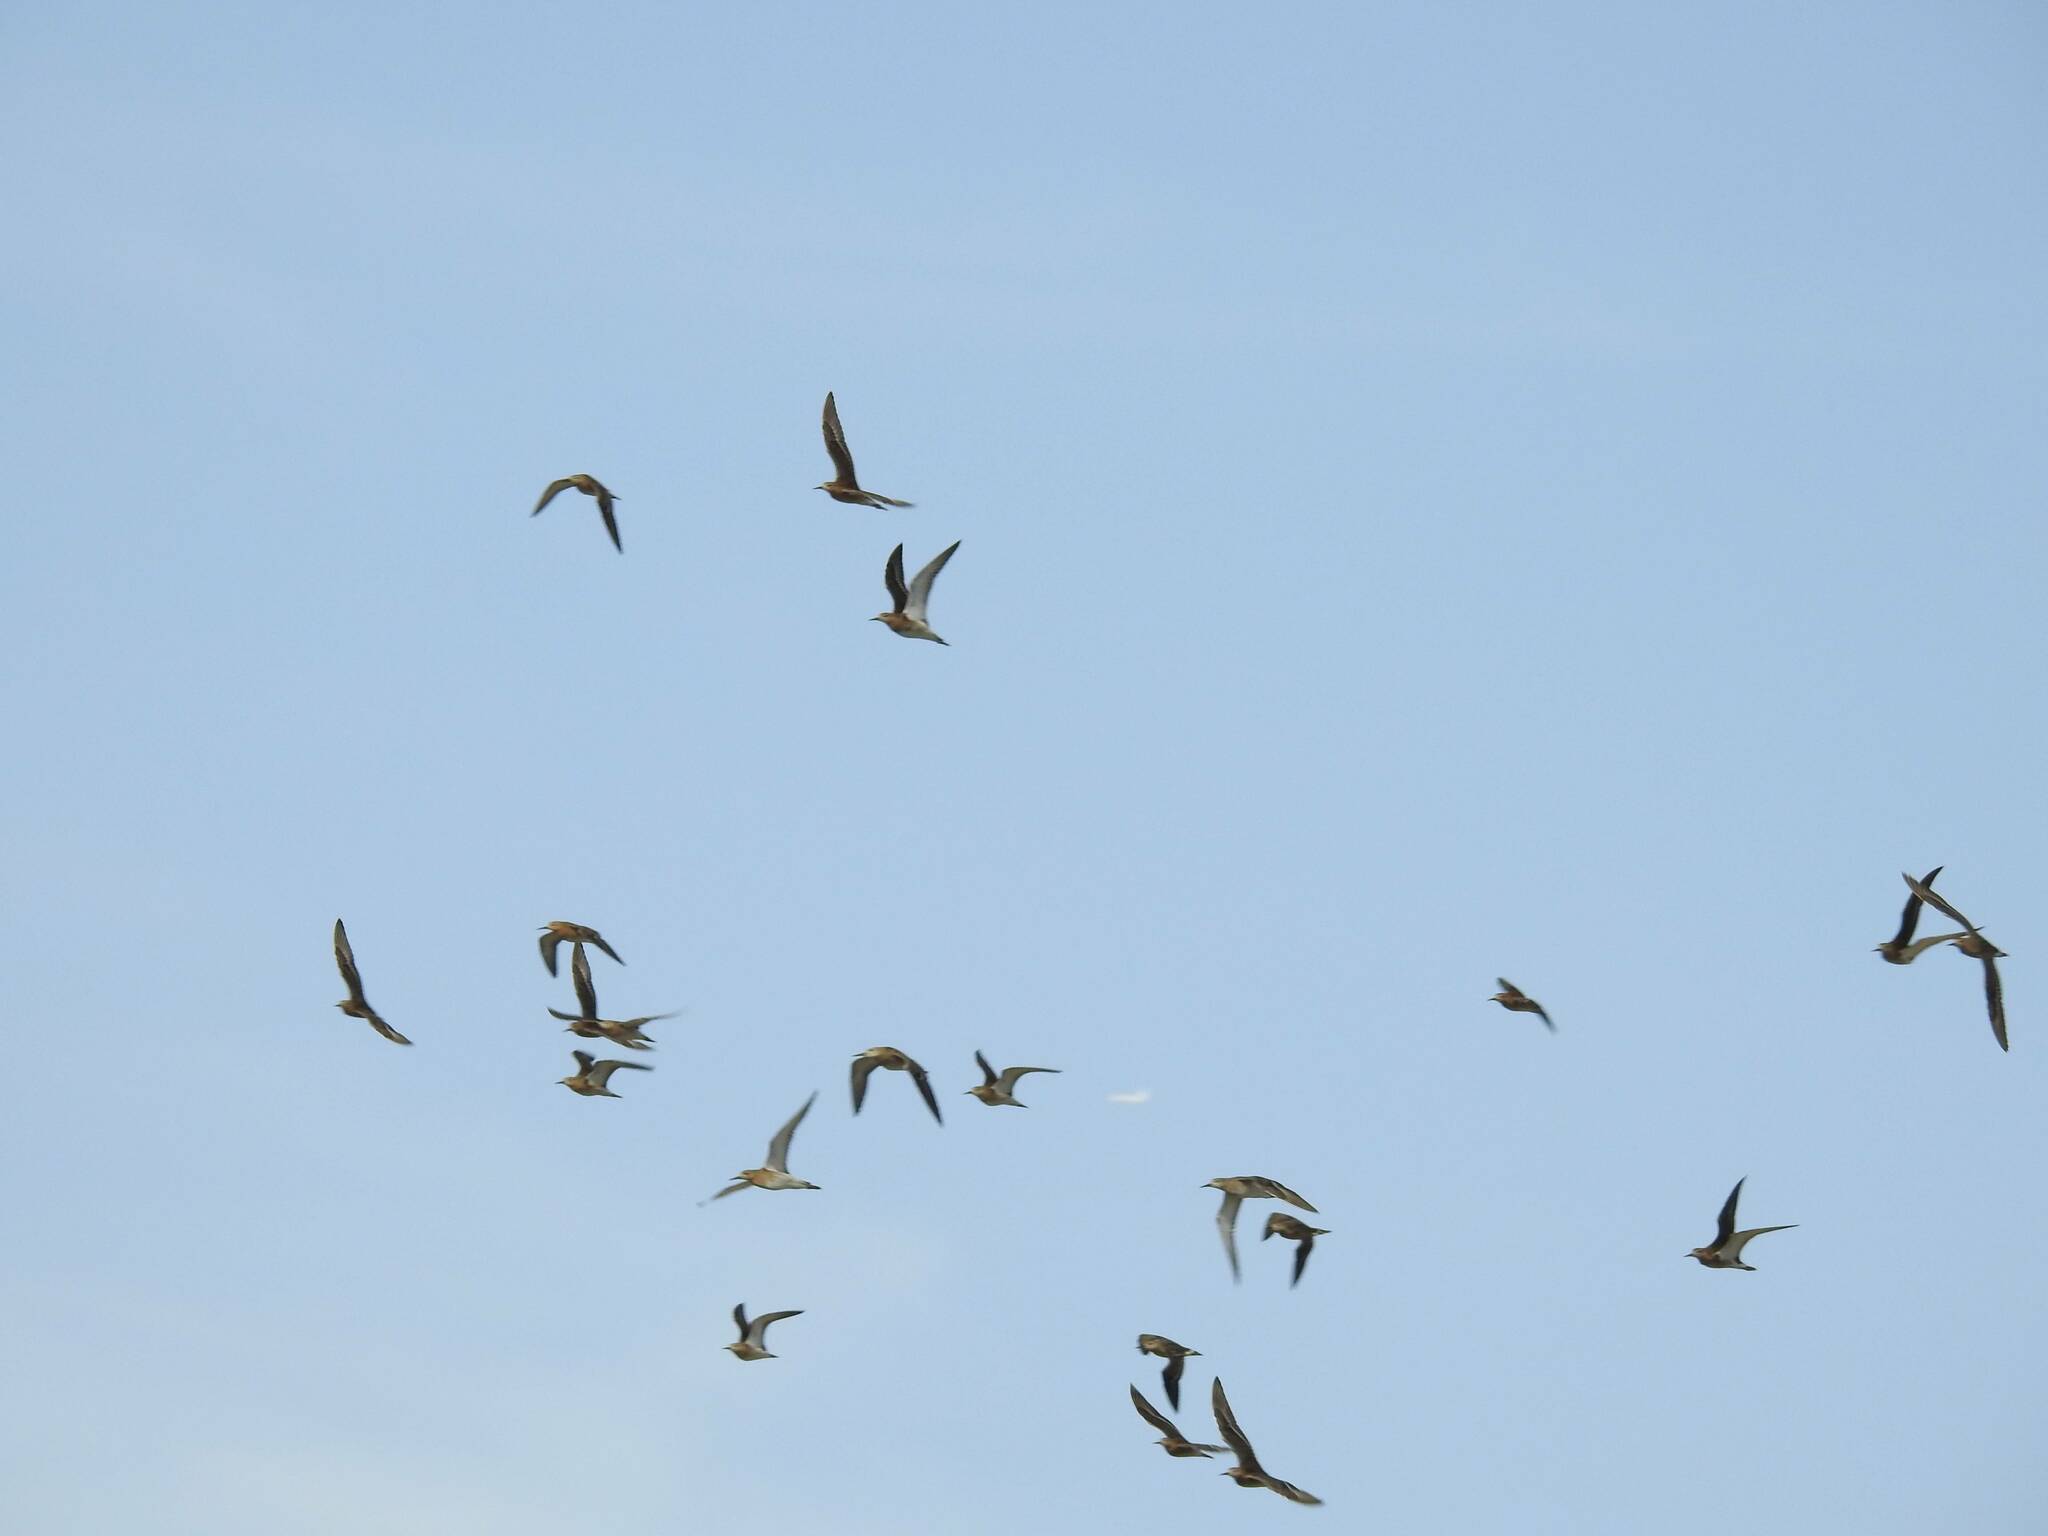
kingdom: Animalia
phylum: Chordata
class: Aves
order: Charadriiformes
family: Scolopacidae
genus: Calidris
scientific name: Calidris pugnax
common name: Ruff
